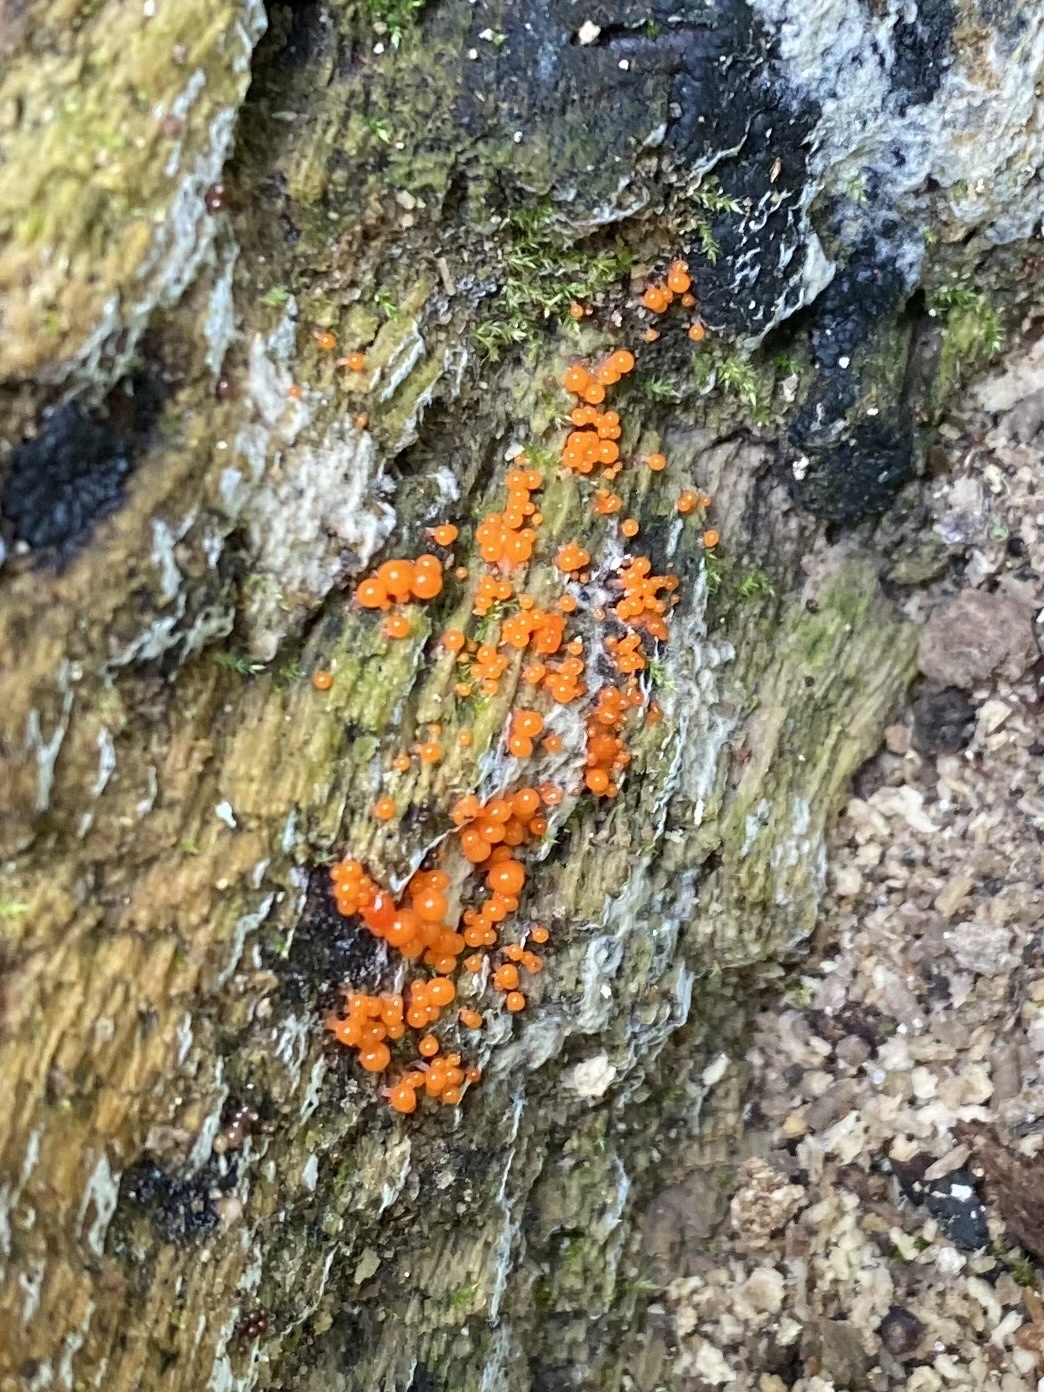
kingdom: Fungi
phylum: Basidiomycota
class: Dacrymycetes
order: Dacrymycetales
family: Dacrymycetaceae
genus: Dacrymyces
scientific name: Dacrymyces stillatus
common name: Common jelly spot
